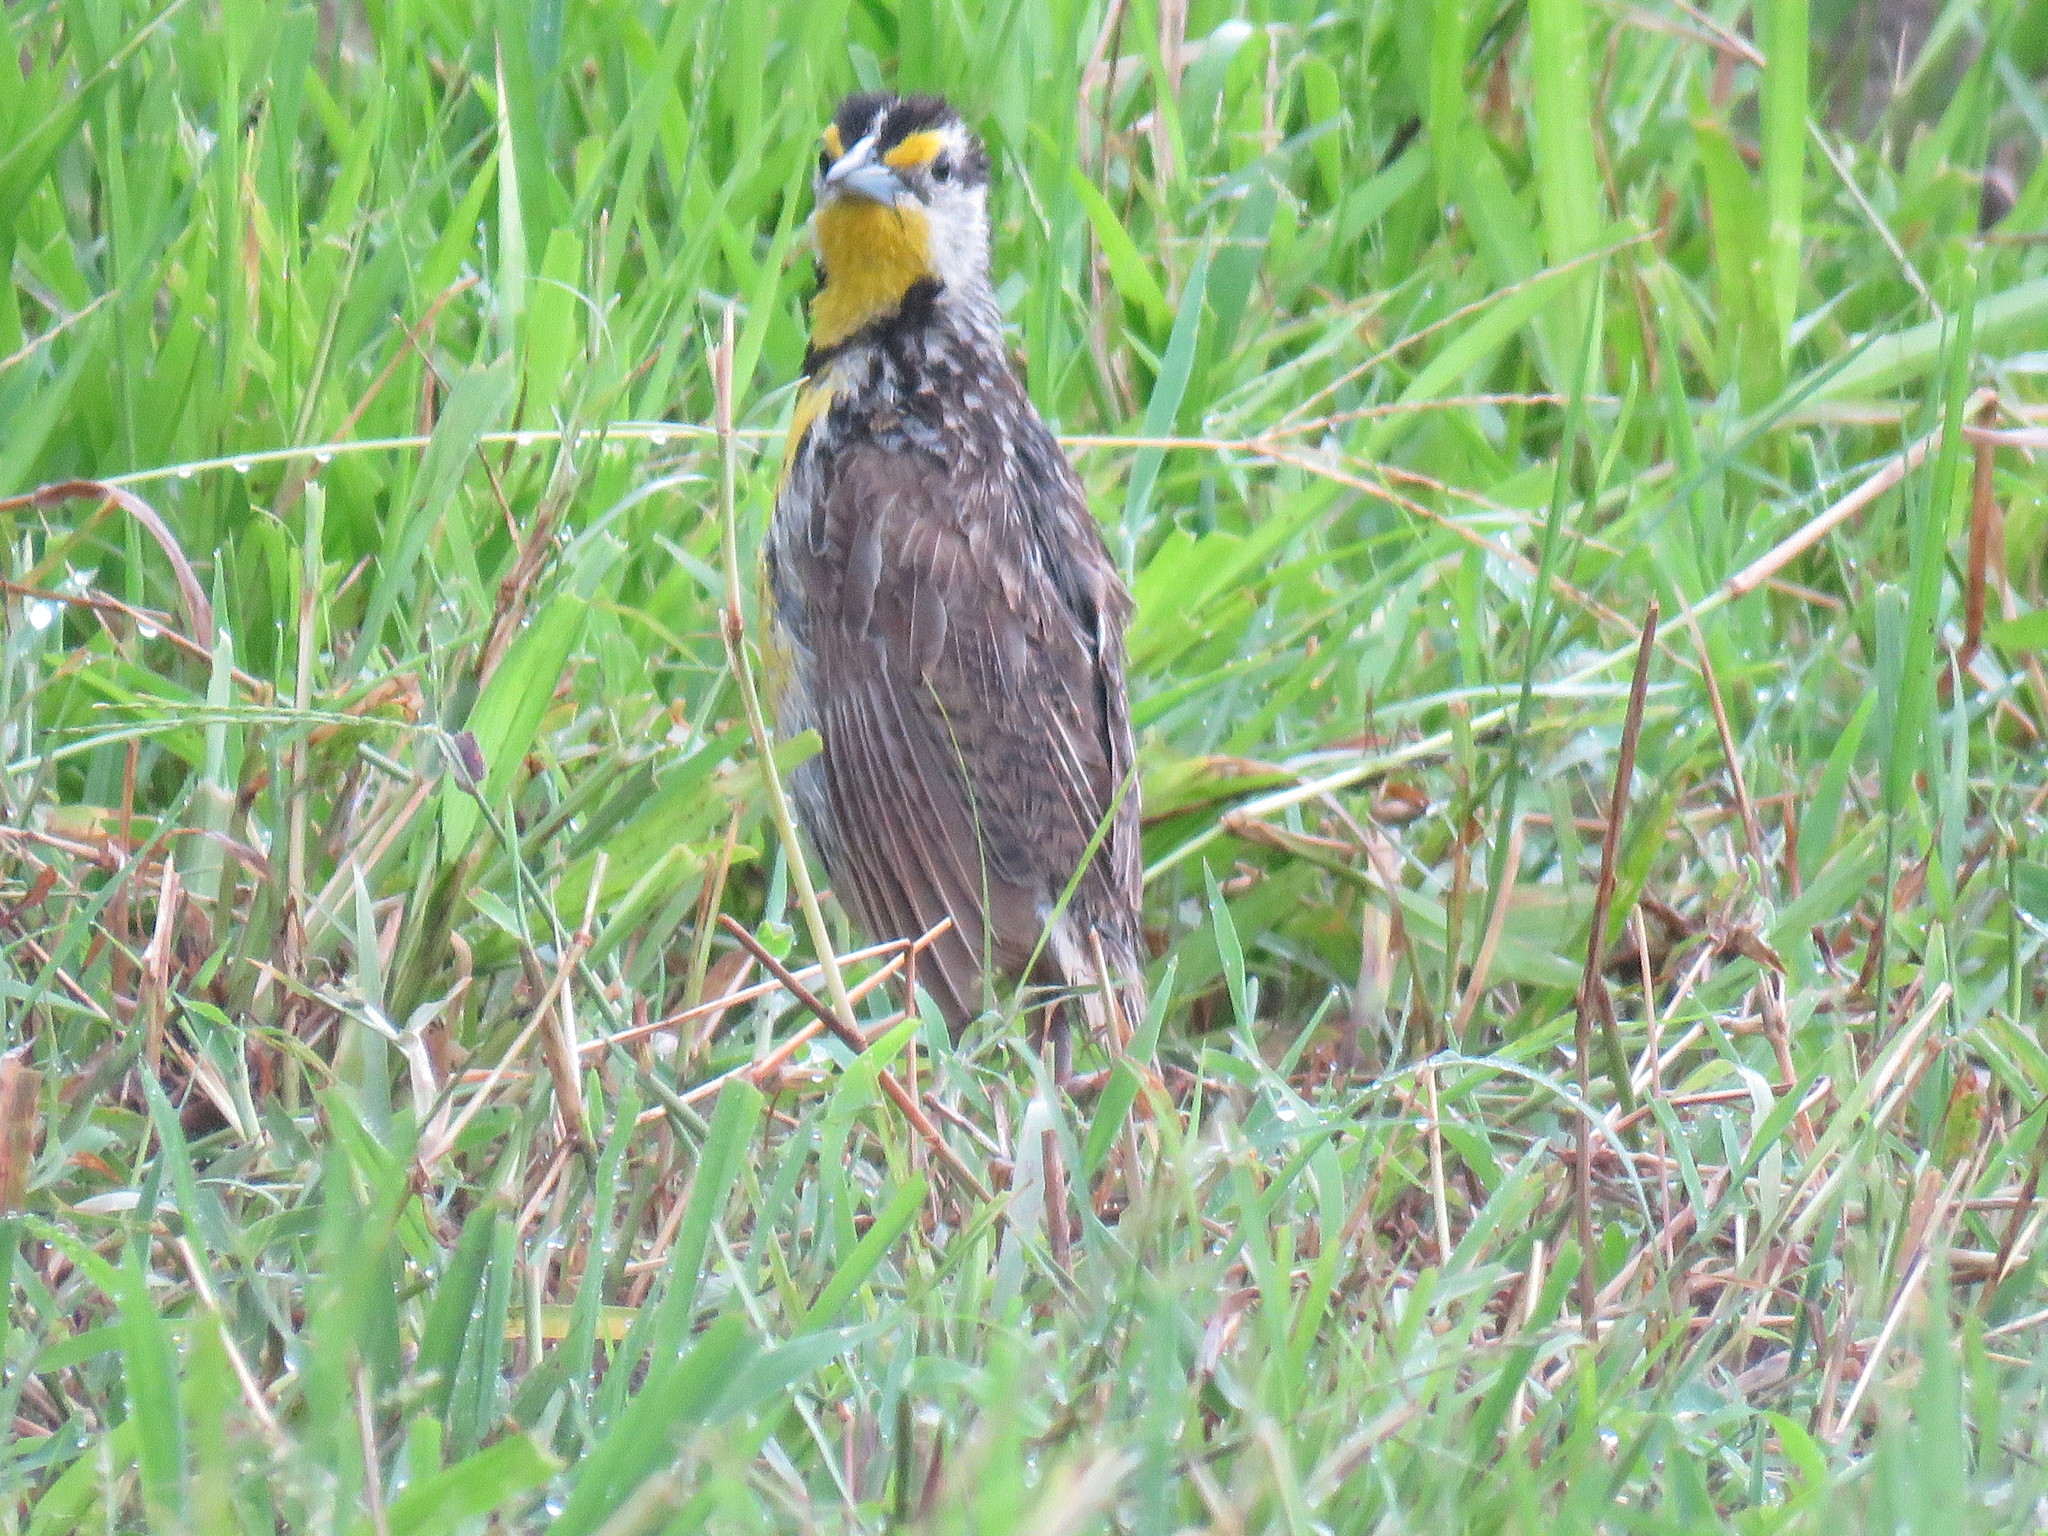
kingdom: Animalia
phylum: Chordata
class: Aves
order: Passeriformes
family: Icteridae
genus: Sturnella
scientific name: Sturnella magna
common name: Eastern meadowlark
